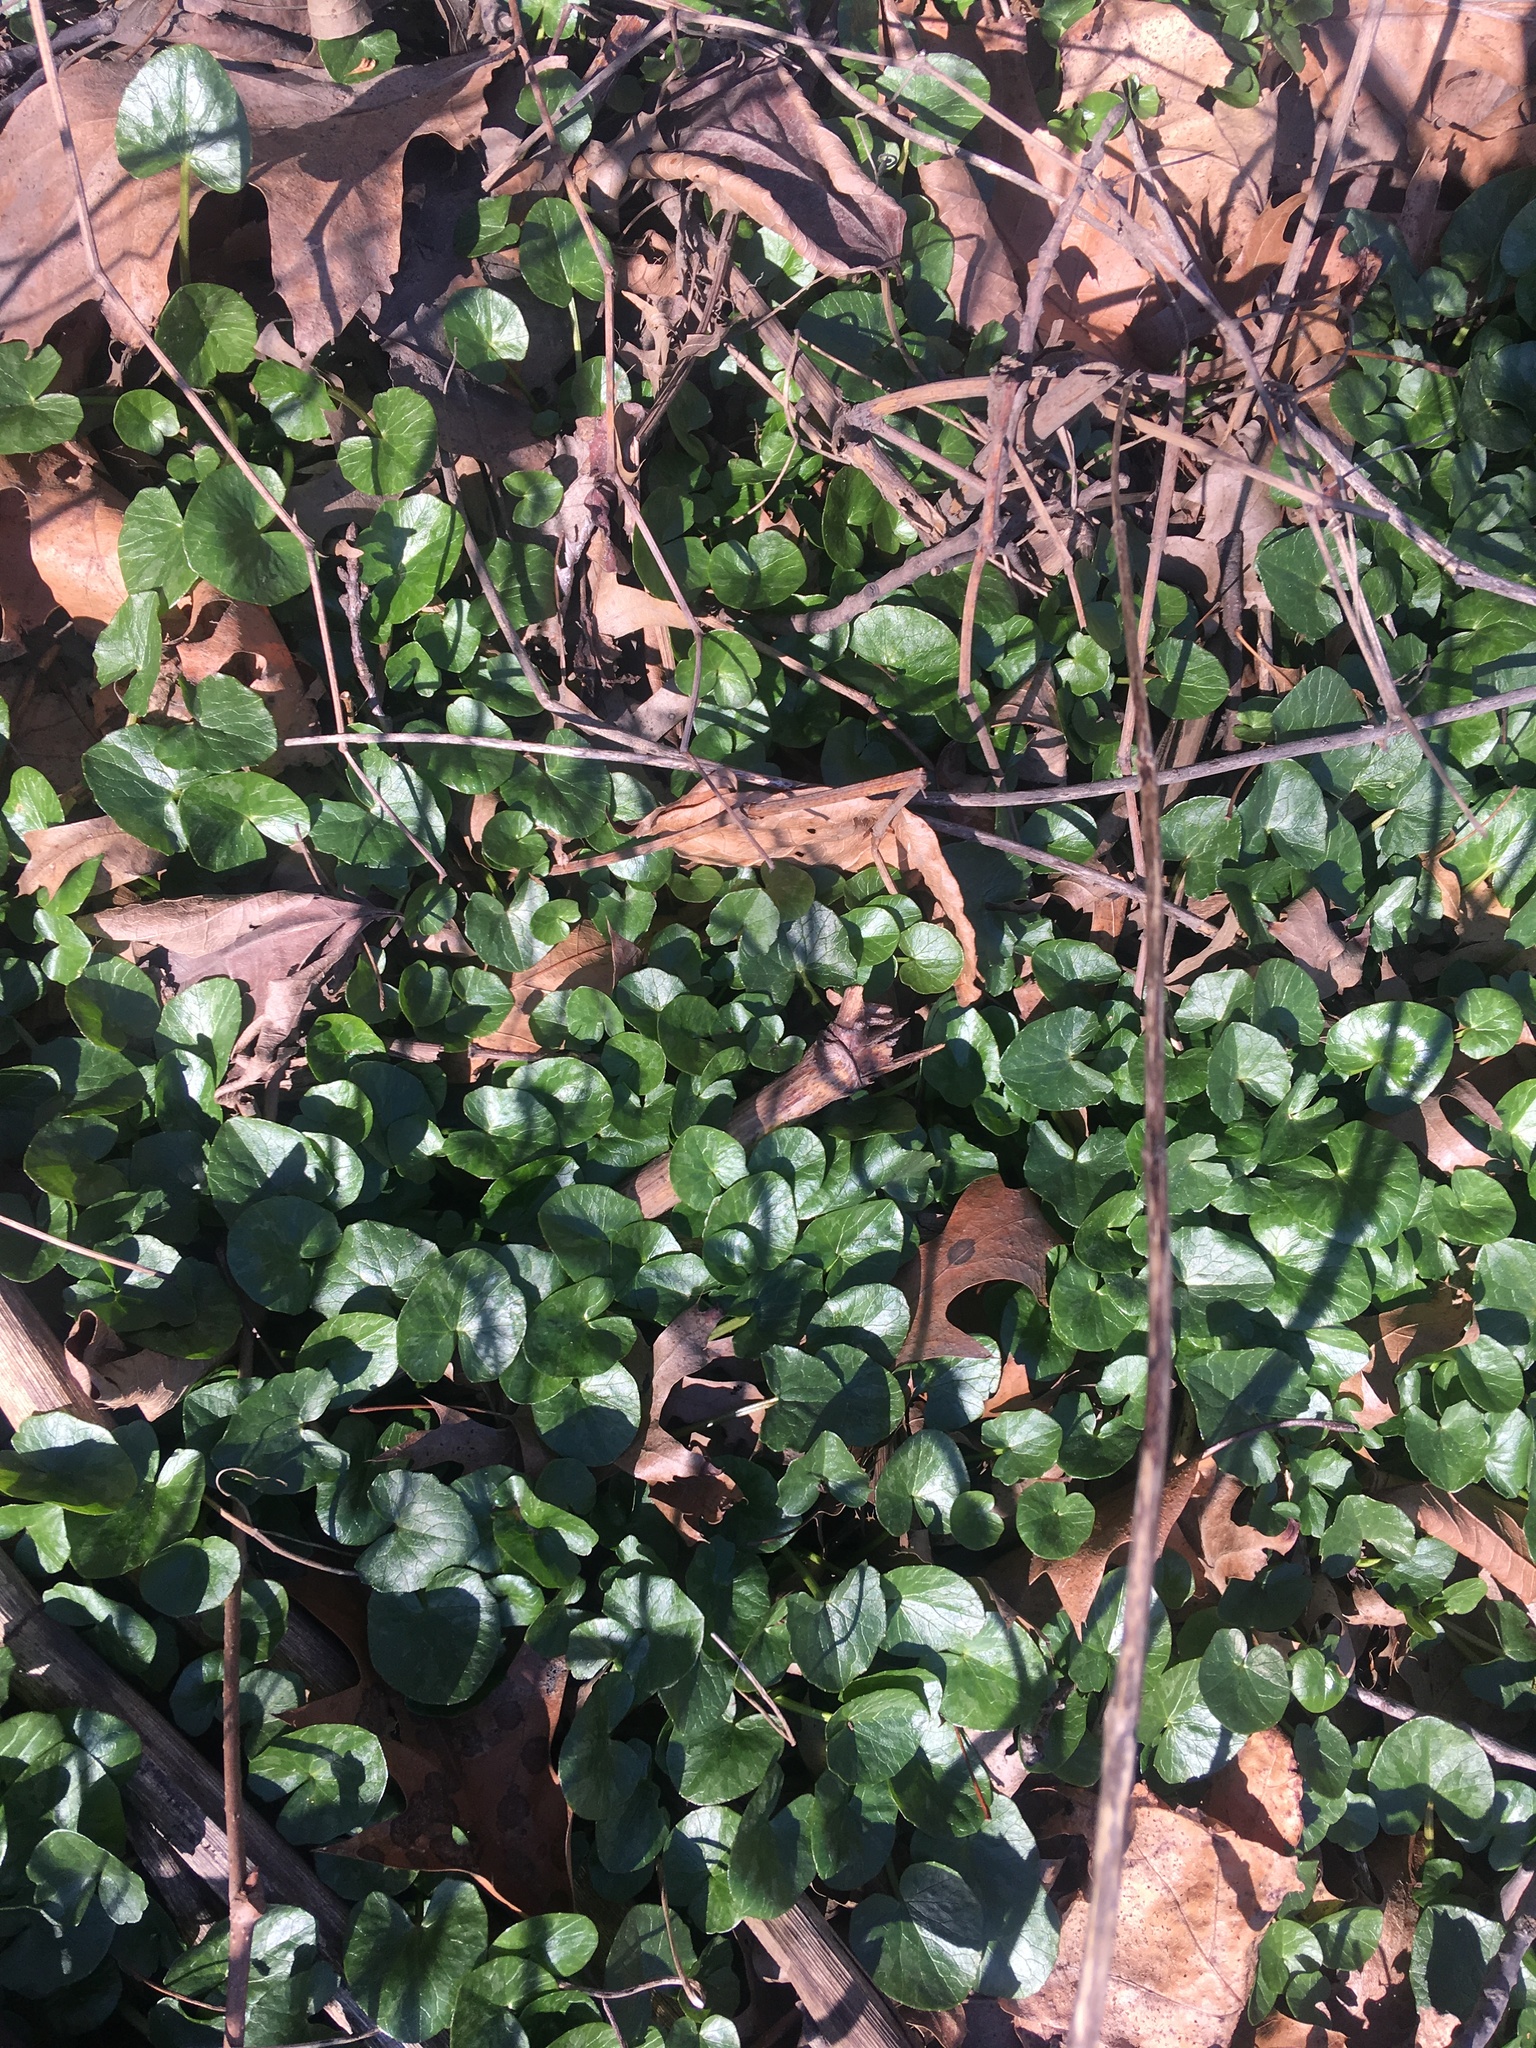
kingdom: Plantae
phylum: Tracheophyta
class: Magnoliopsida
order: Ranunculales
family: Ranunculaceae
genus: Ficaria
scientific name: Ficaria verna
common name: Lesser celandine
